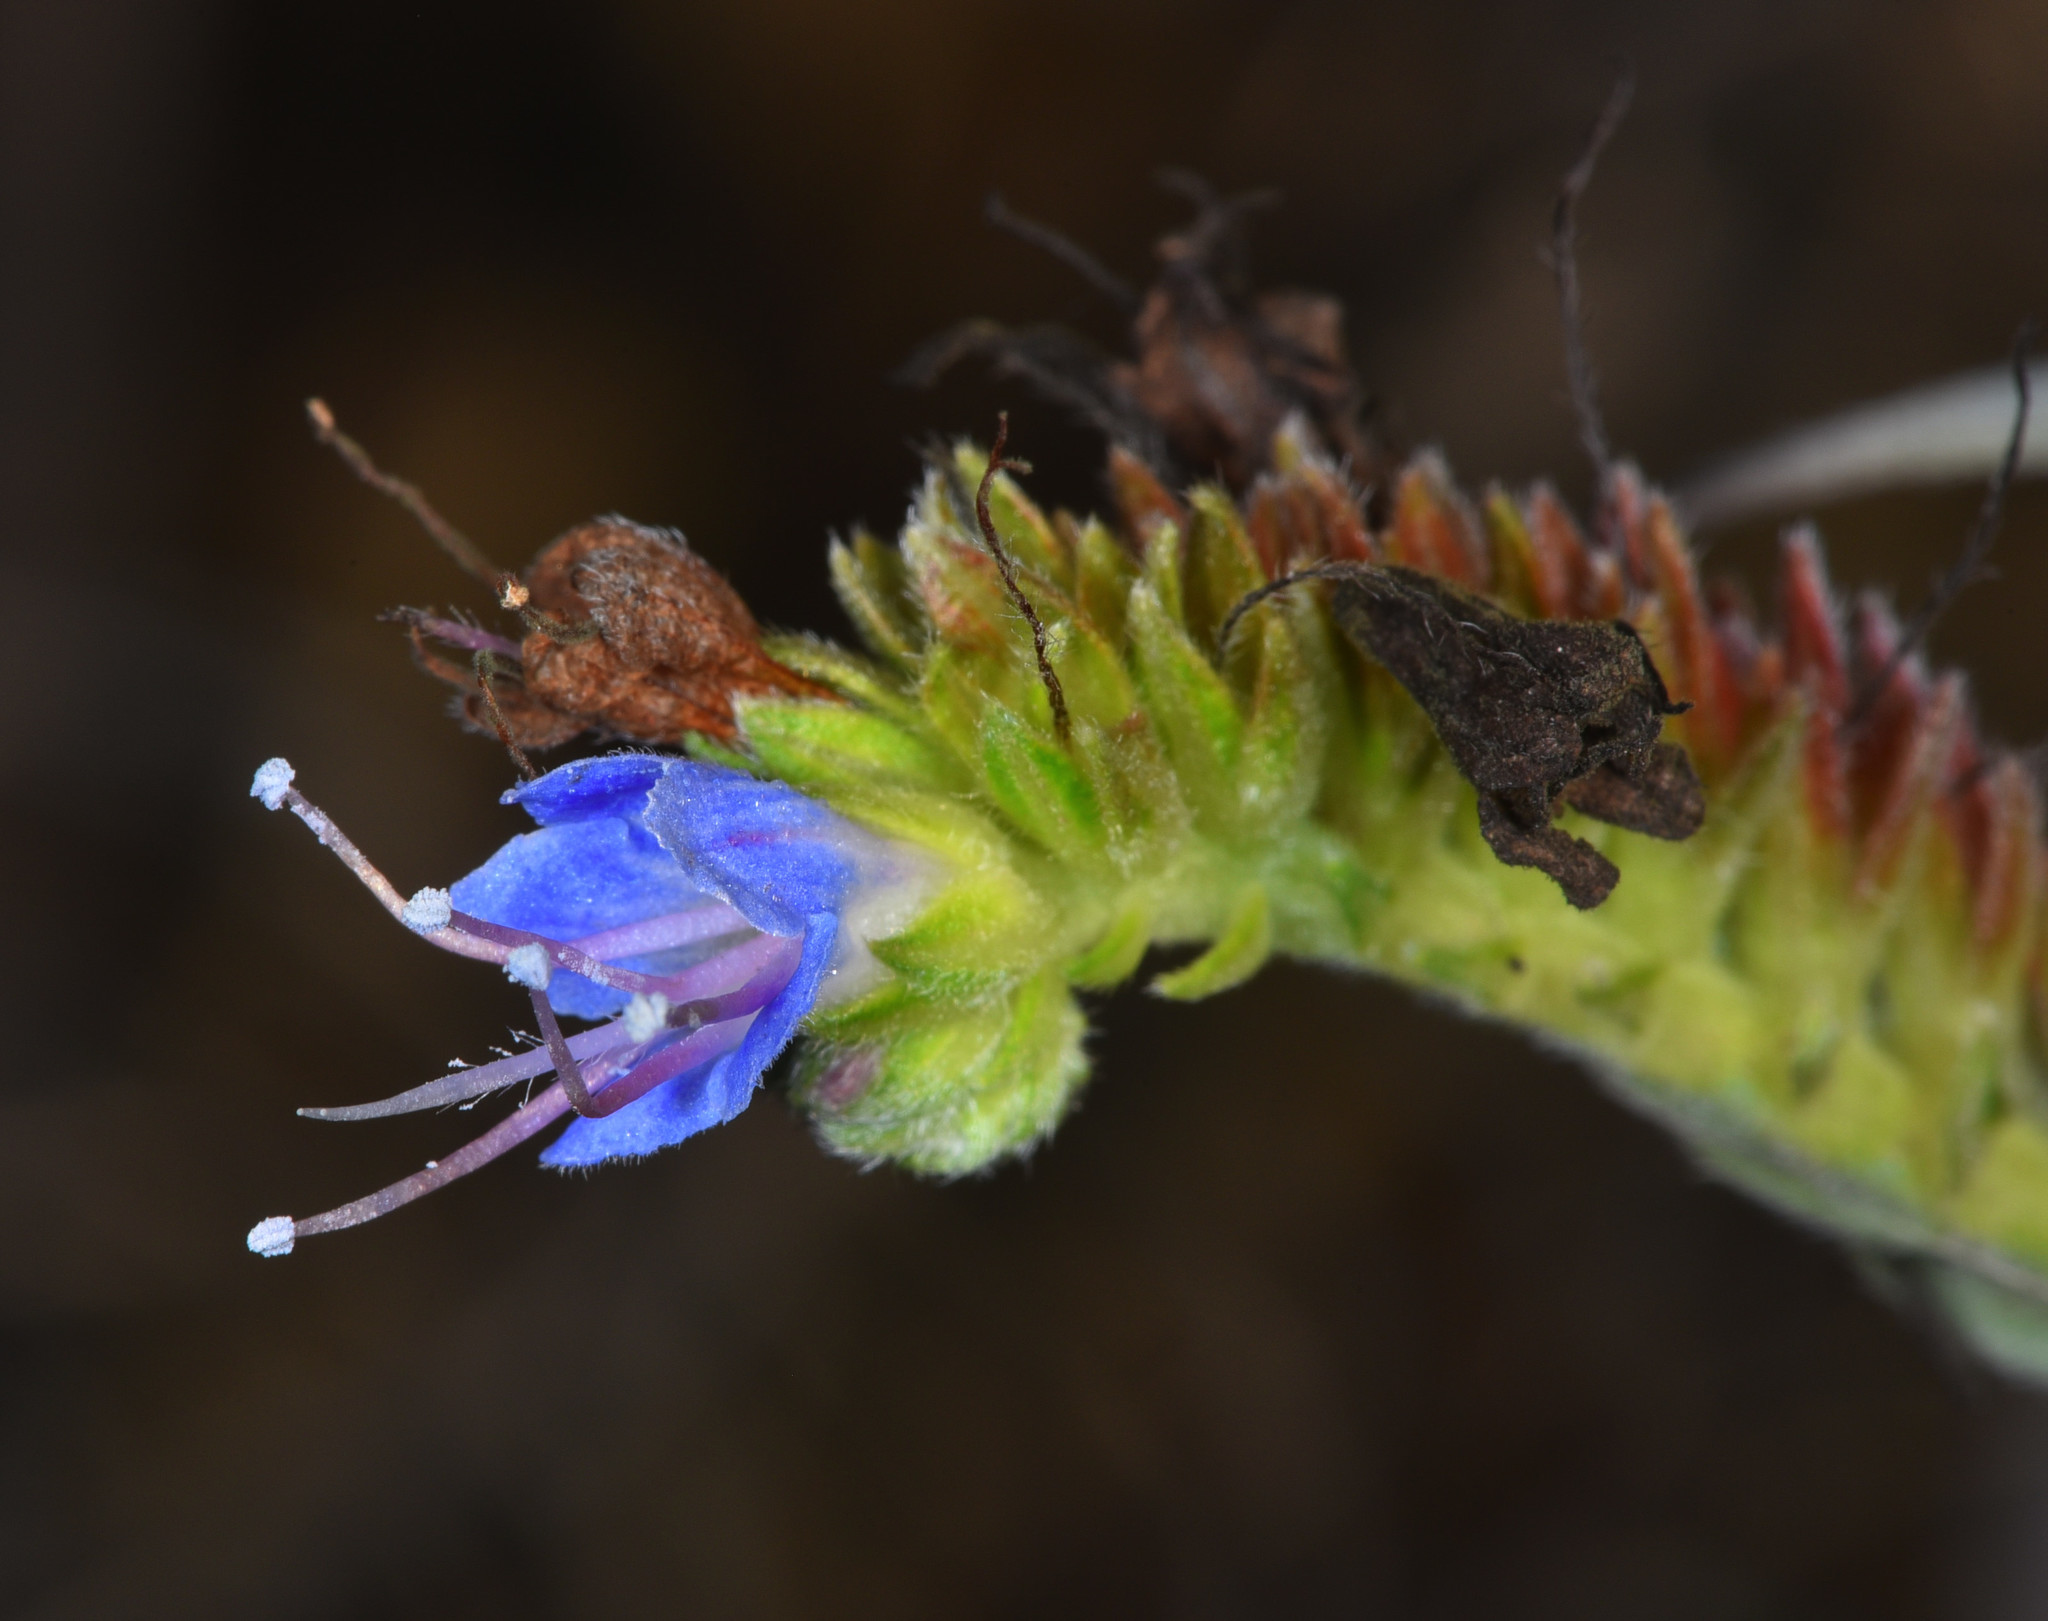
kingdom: Plantae
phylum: Tracheophyta
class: Magnoliopsida
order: Boraginales
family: Boraginaceae
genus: Echium
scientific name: Echium candicans
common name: Pride of madeira
